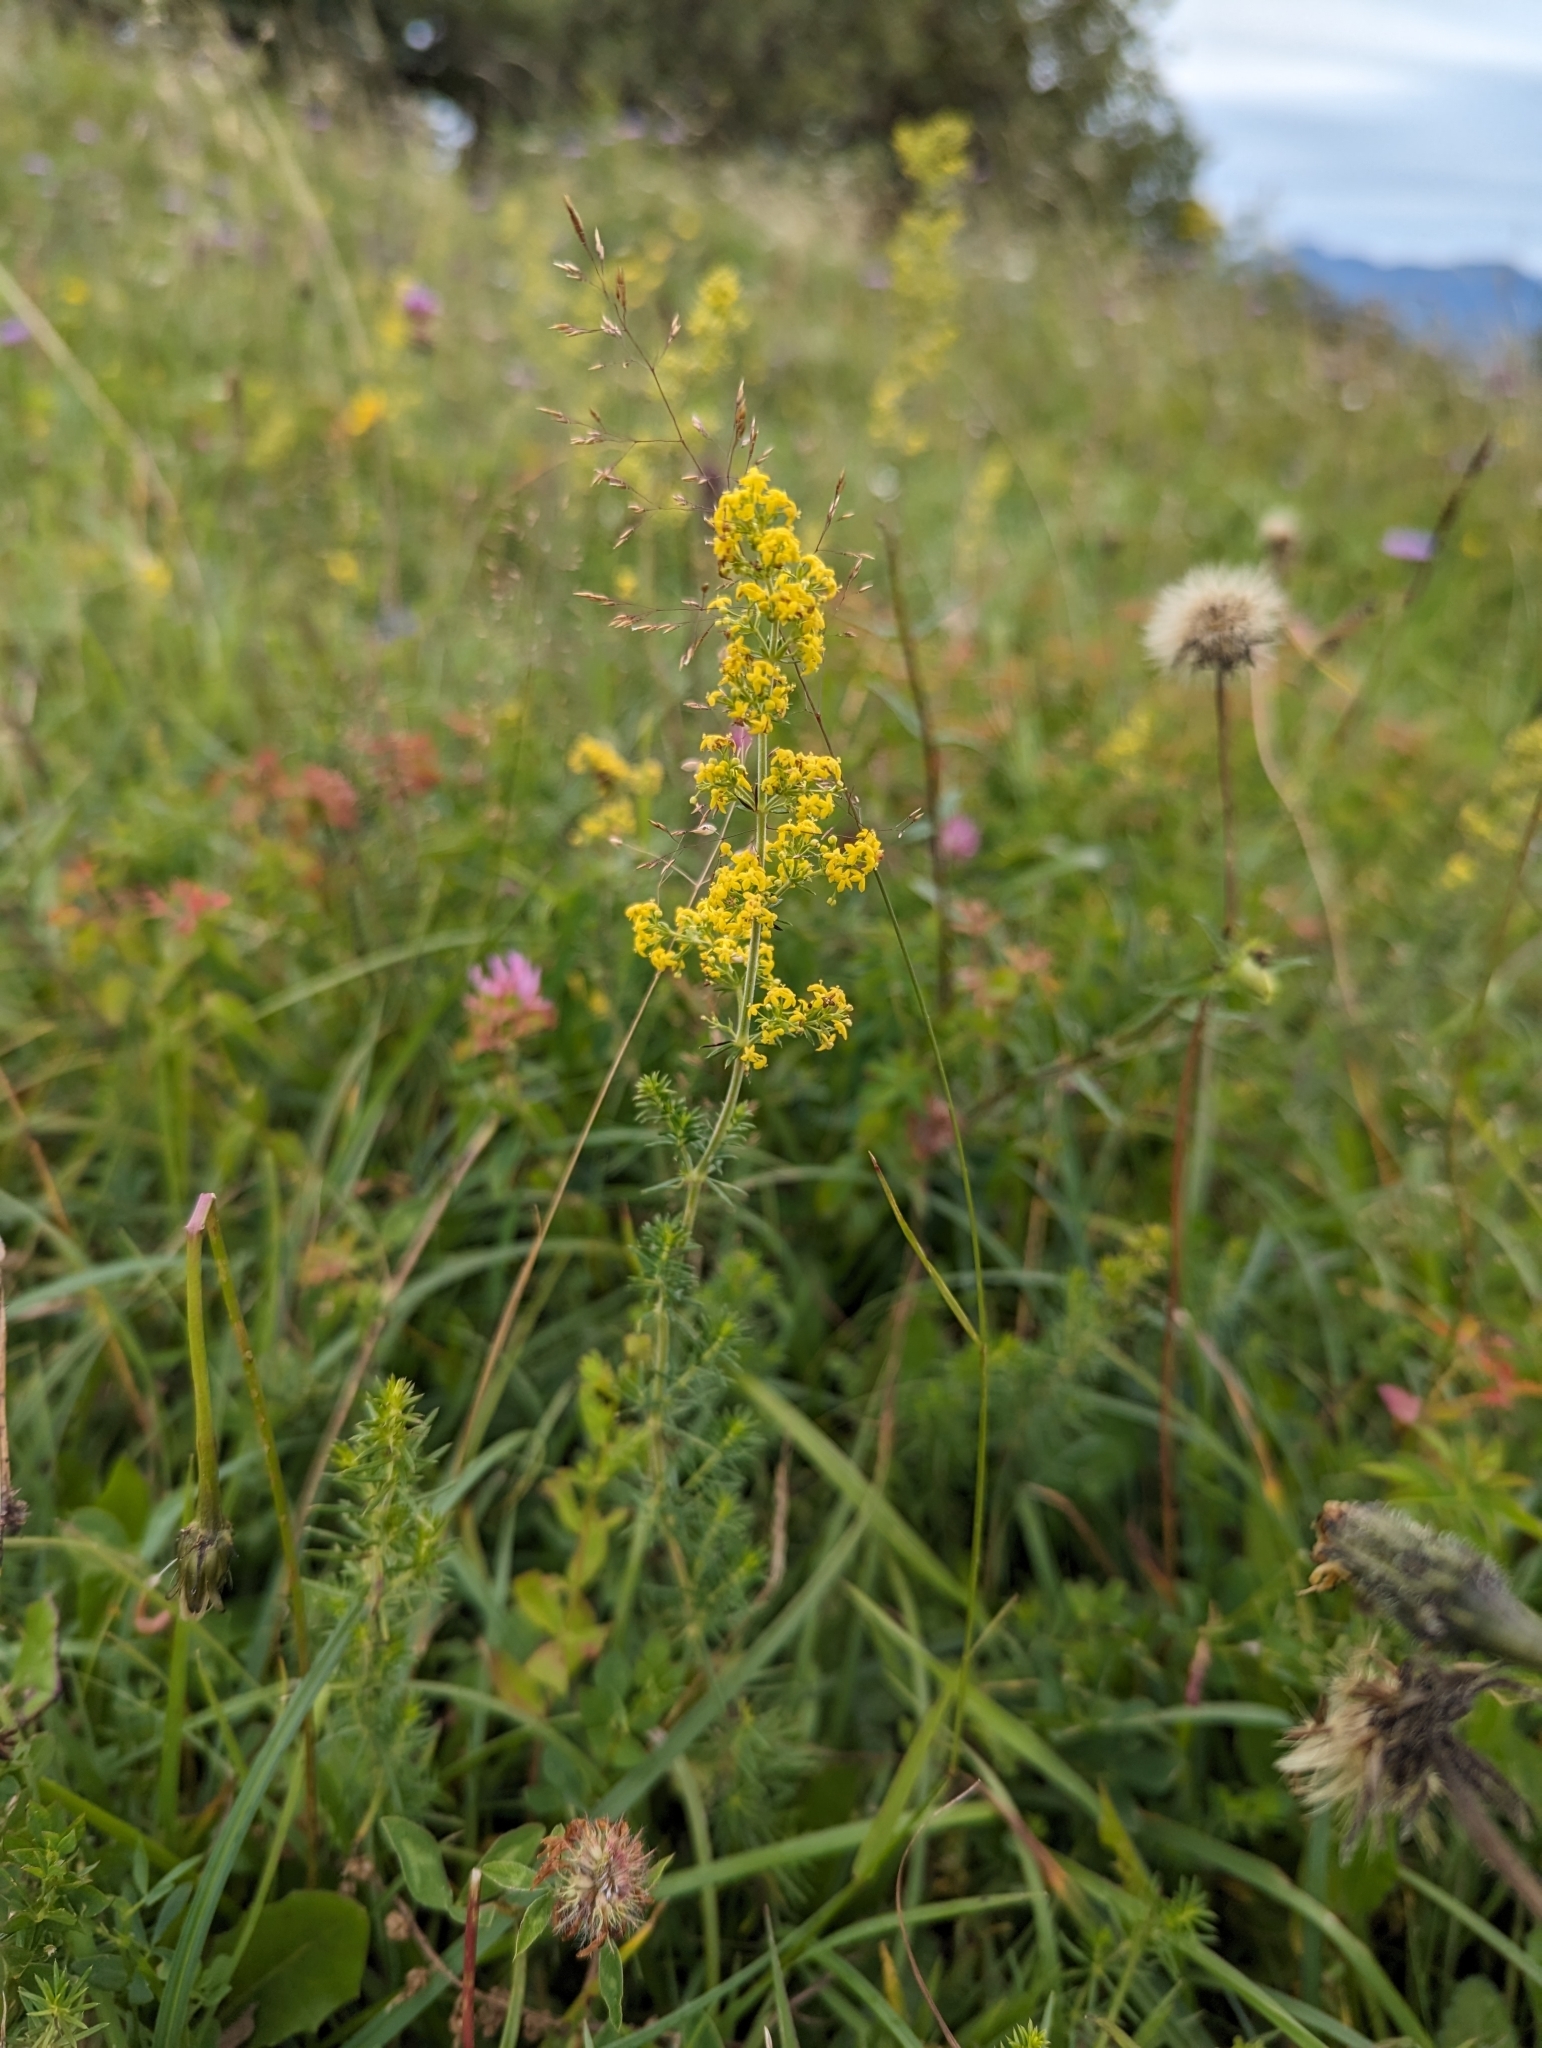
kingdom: Plantae
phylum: Tracheophyta
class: Magnoliopsida
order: Gentianales
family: Rubiaceae
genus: Galium
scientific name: Galium verum
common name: Lady's bedstraw
